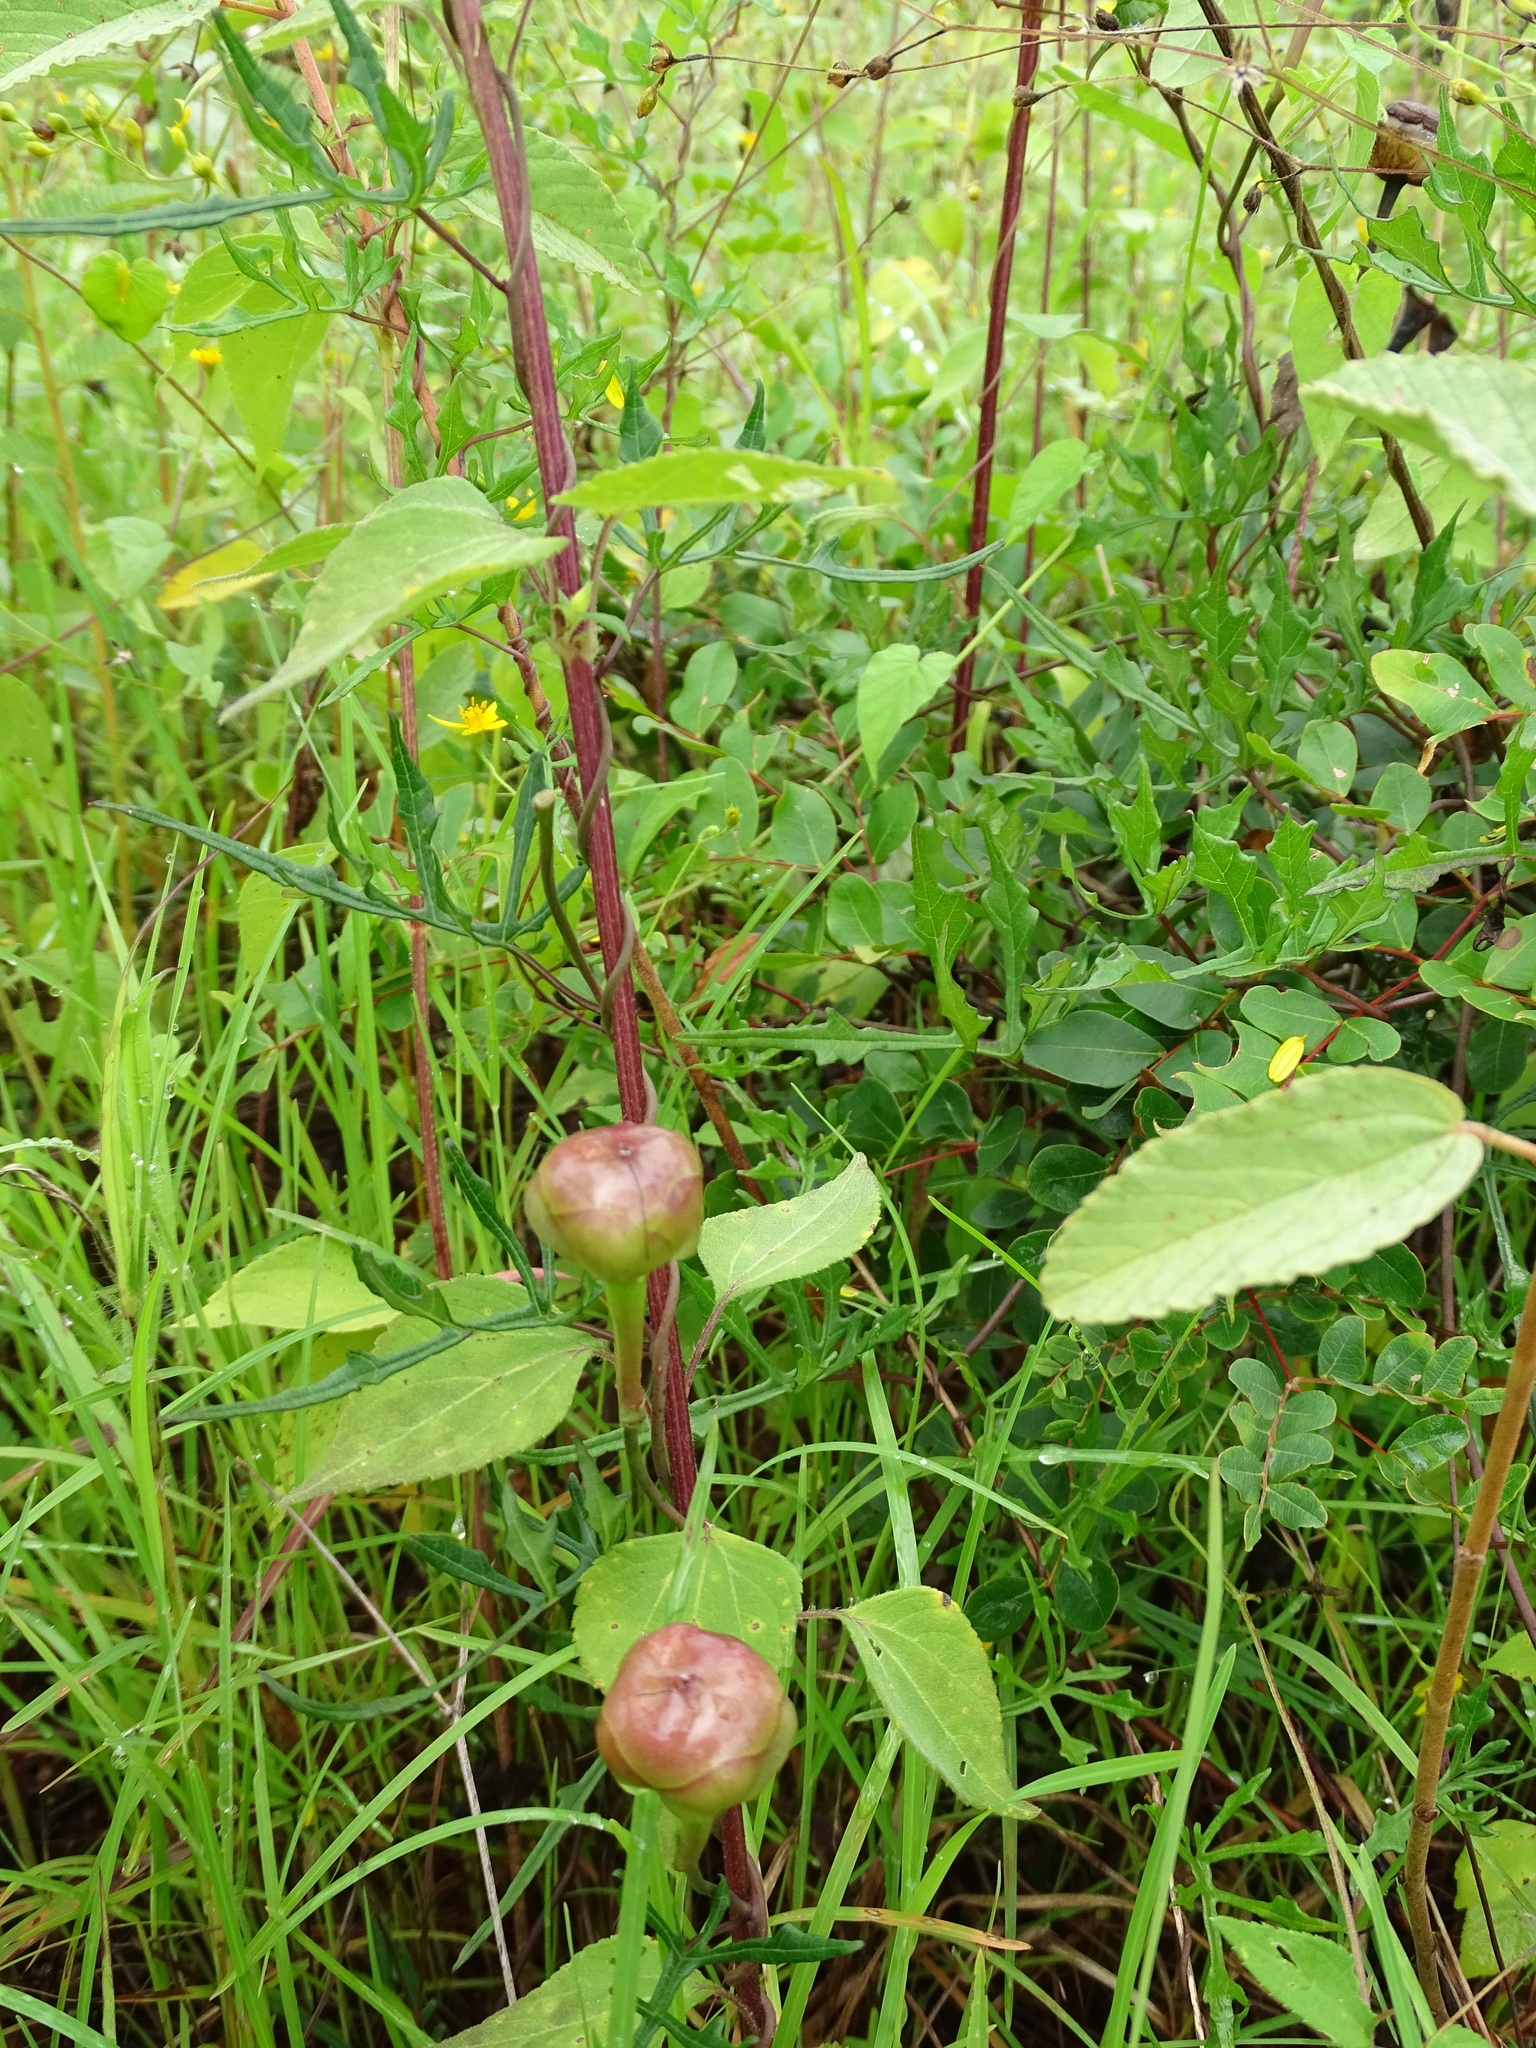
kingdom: Plantae
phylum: Tracheophyta
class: Magnoliopsida
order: Solanales
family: Convolvulaceae
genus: Operculina
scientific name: Operculina pinnatifida
